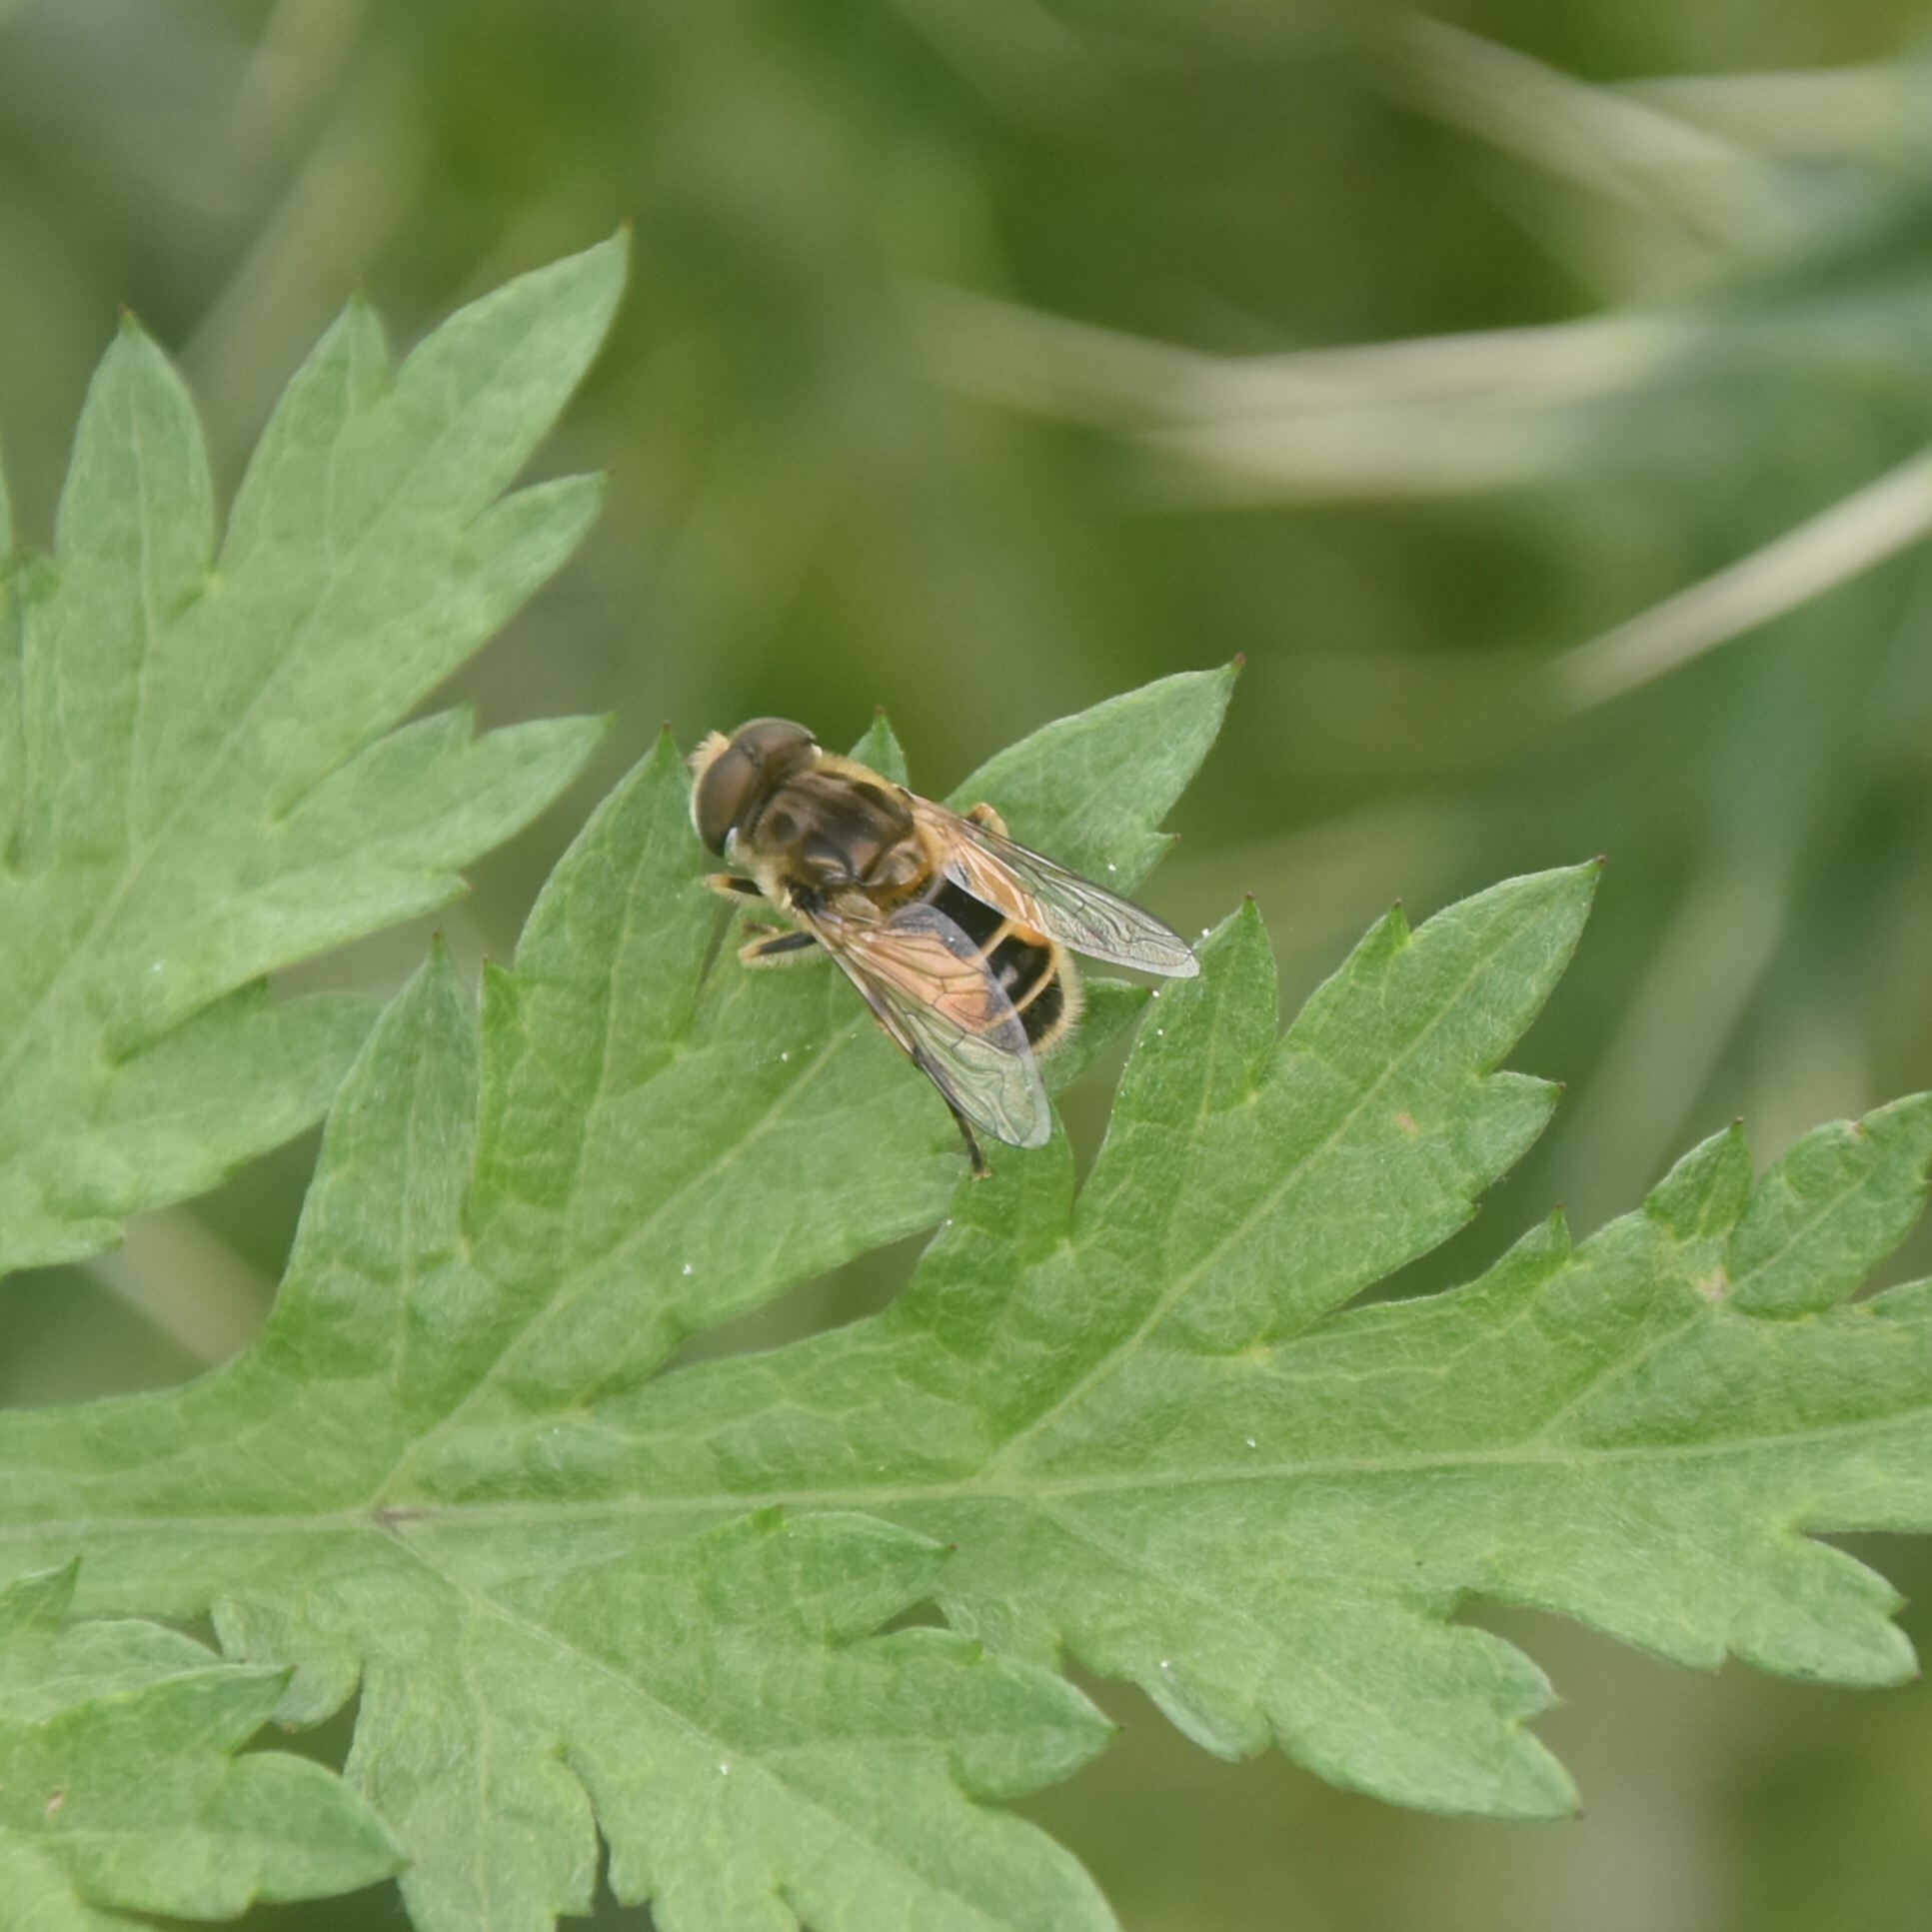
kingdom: Animalia
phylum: Arthropoda
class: Insecta
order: Diptera
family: Syrphidae
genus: Eristalis
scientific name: Eristalis arbustorum
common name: Hover fly
